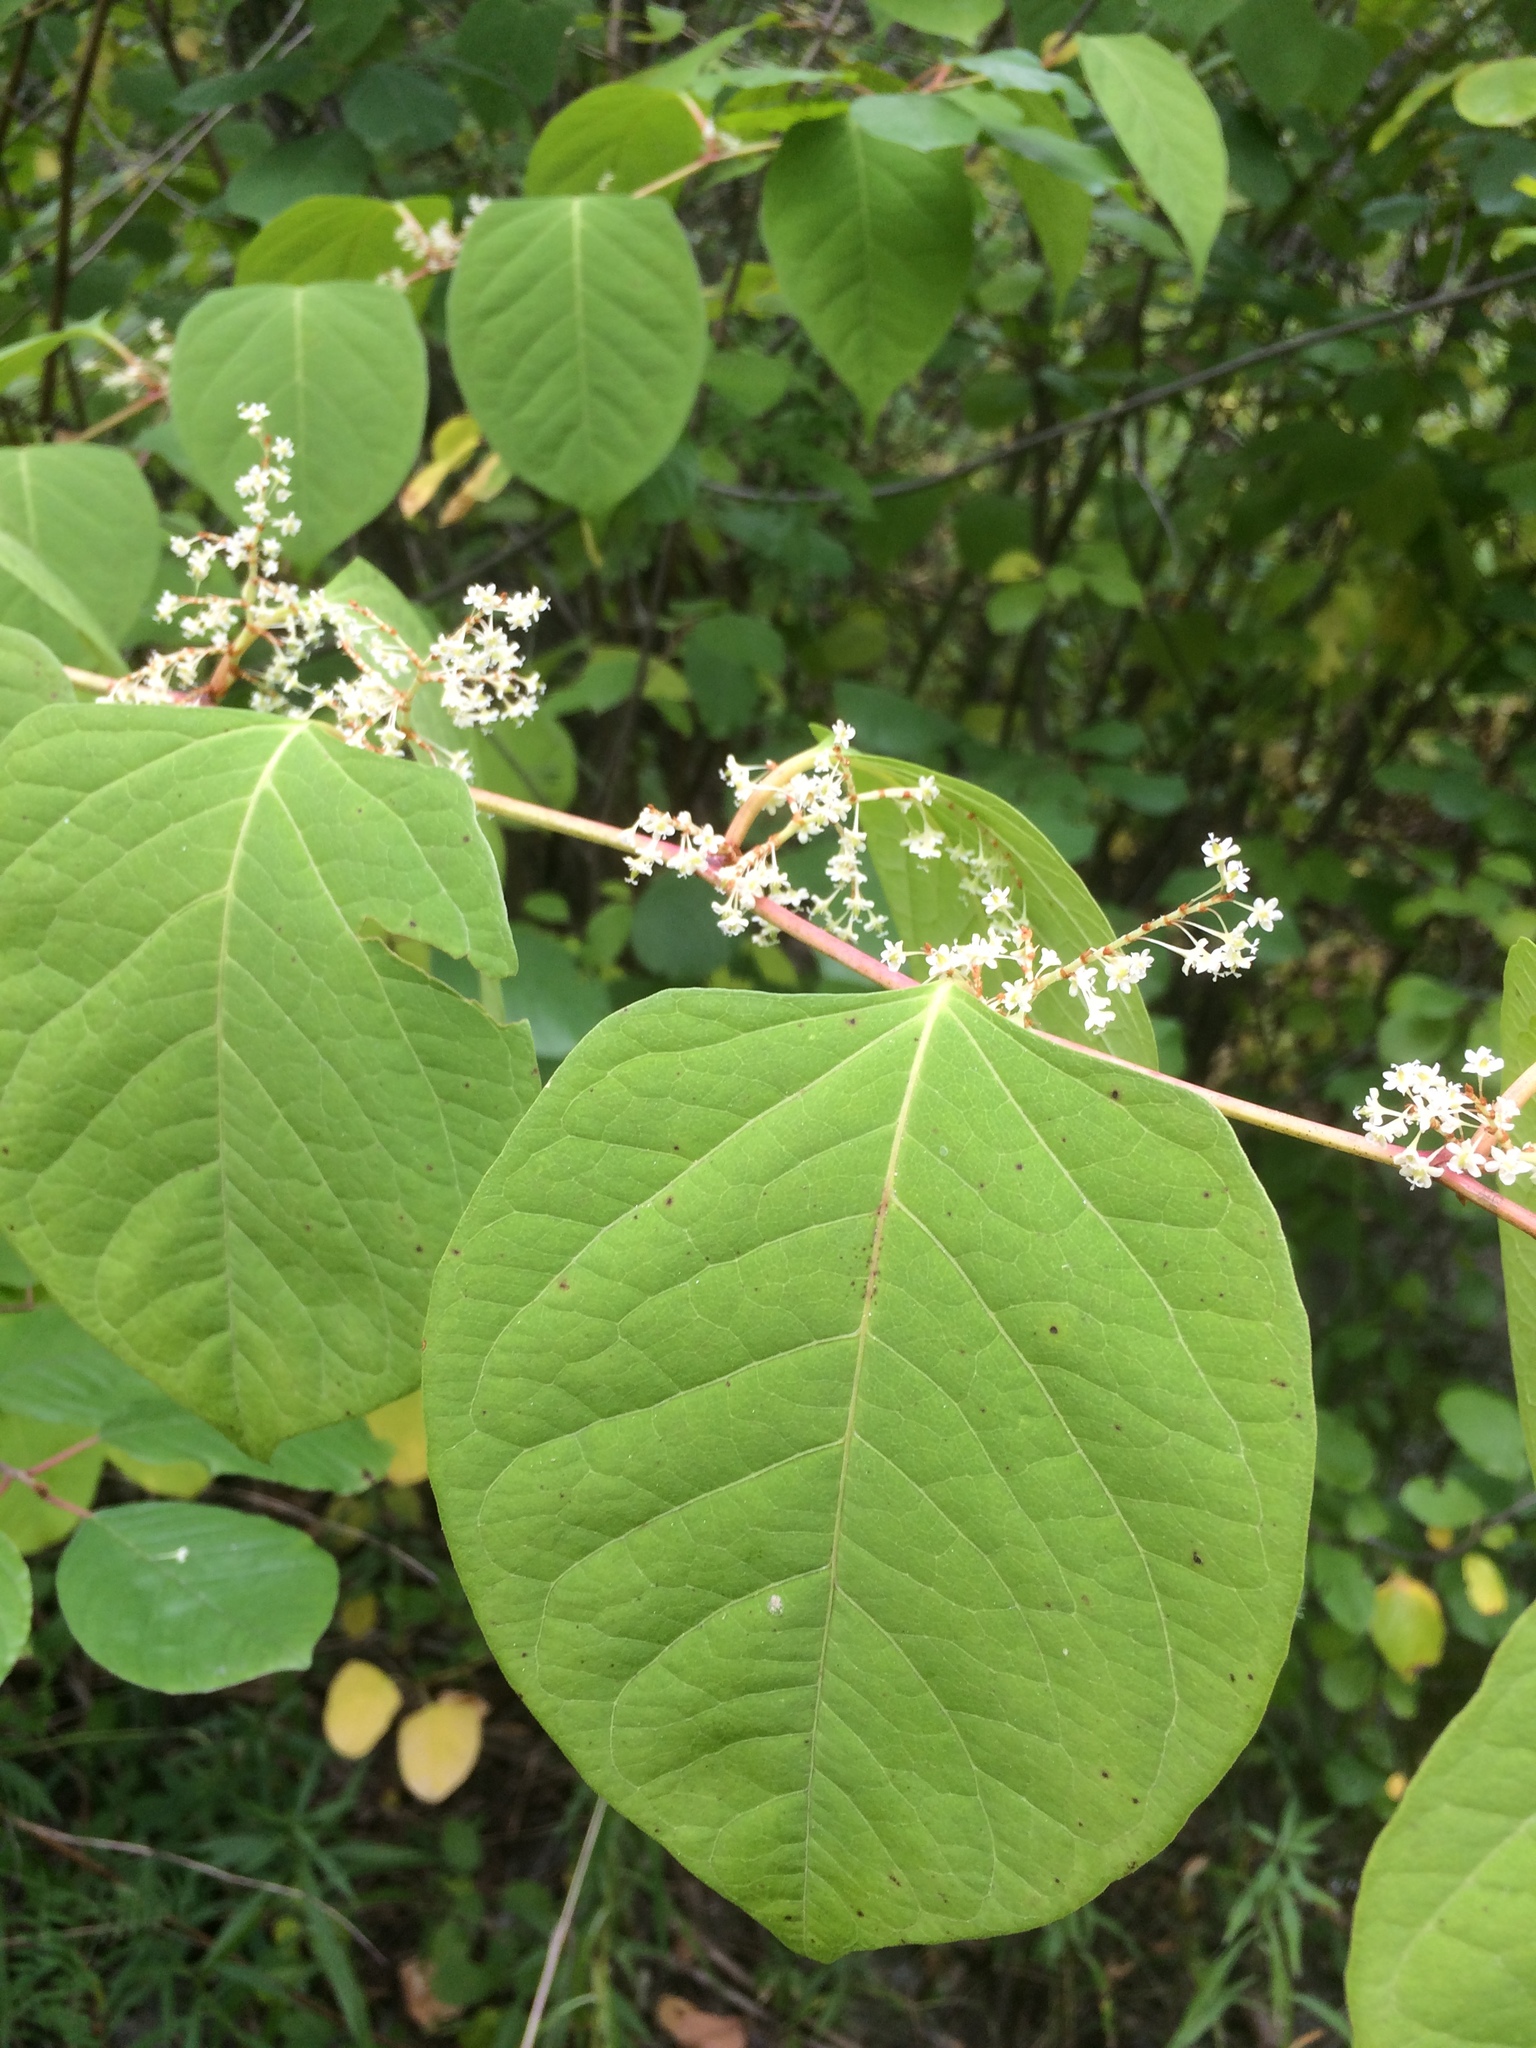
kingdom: Plantae
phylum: Tracheophyta
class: Magnoliopsida
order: Caryophyllales
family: Polygonaceae
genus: Reynoutria
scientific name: Reynoutria japonica
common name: Japanese knotweed
